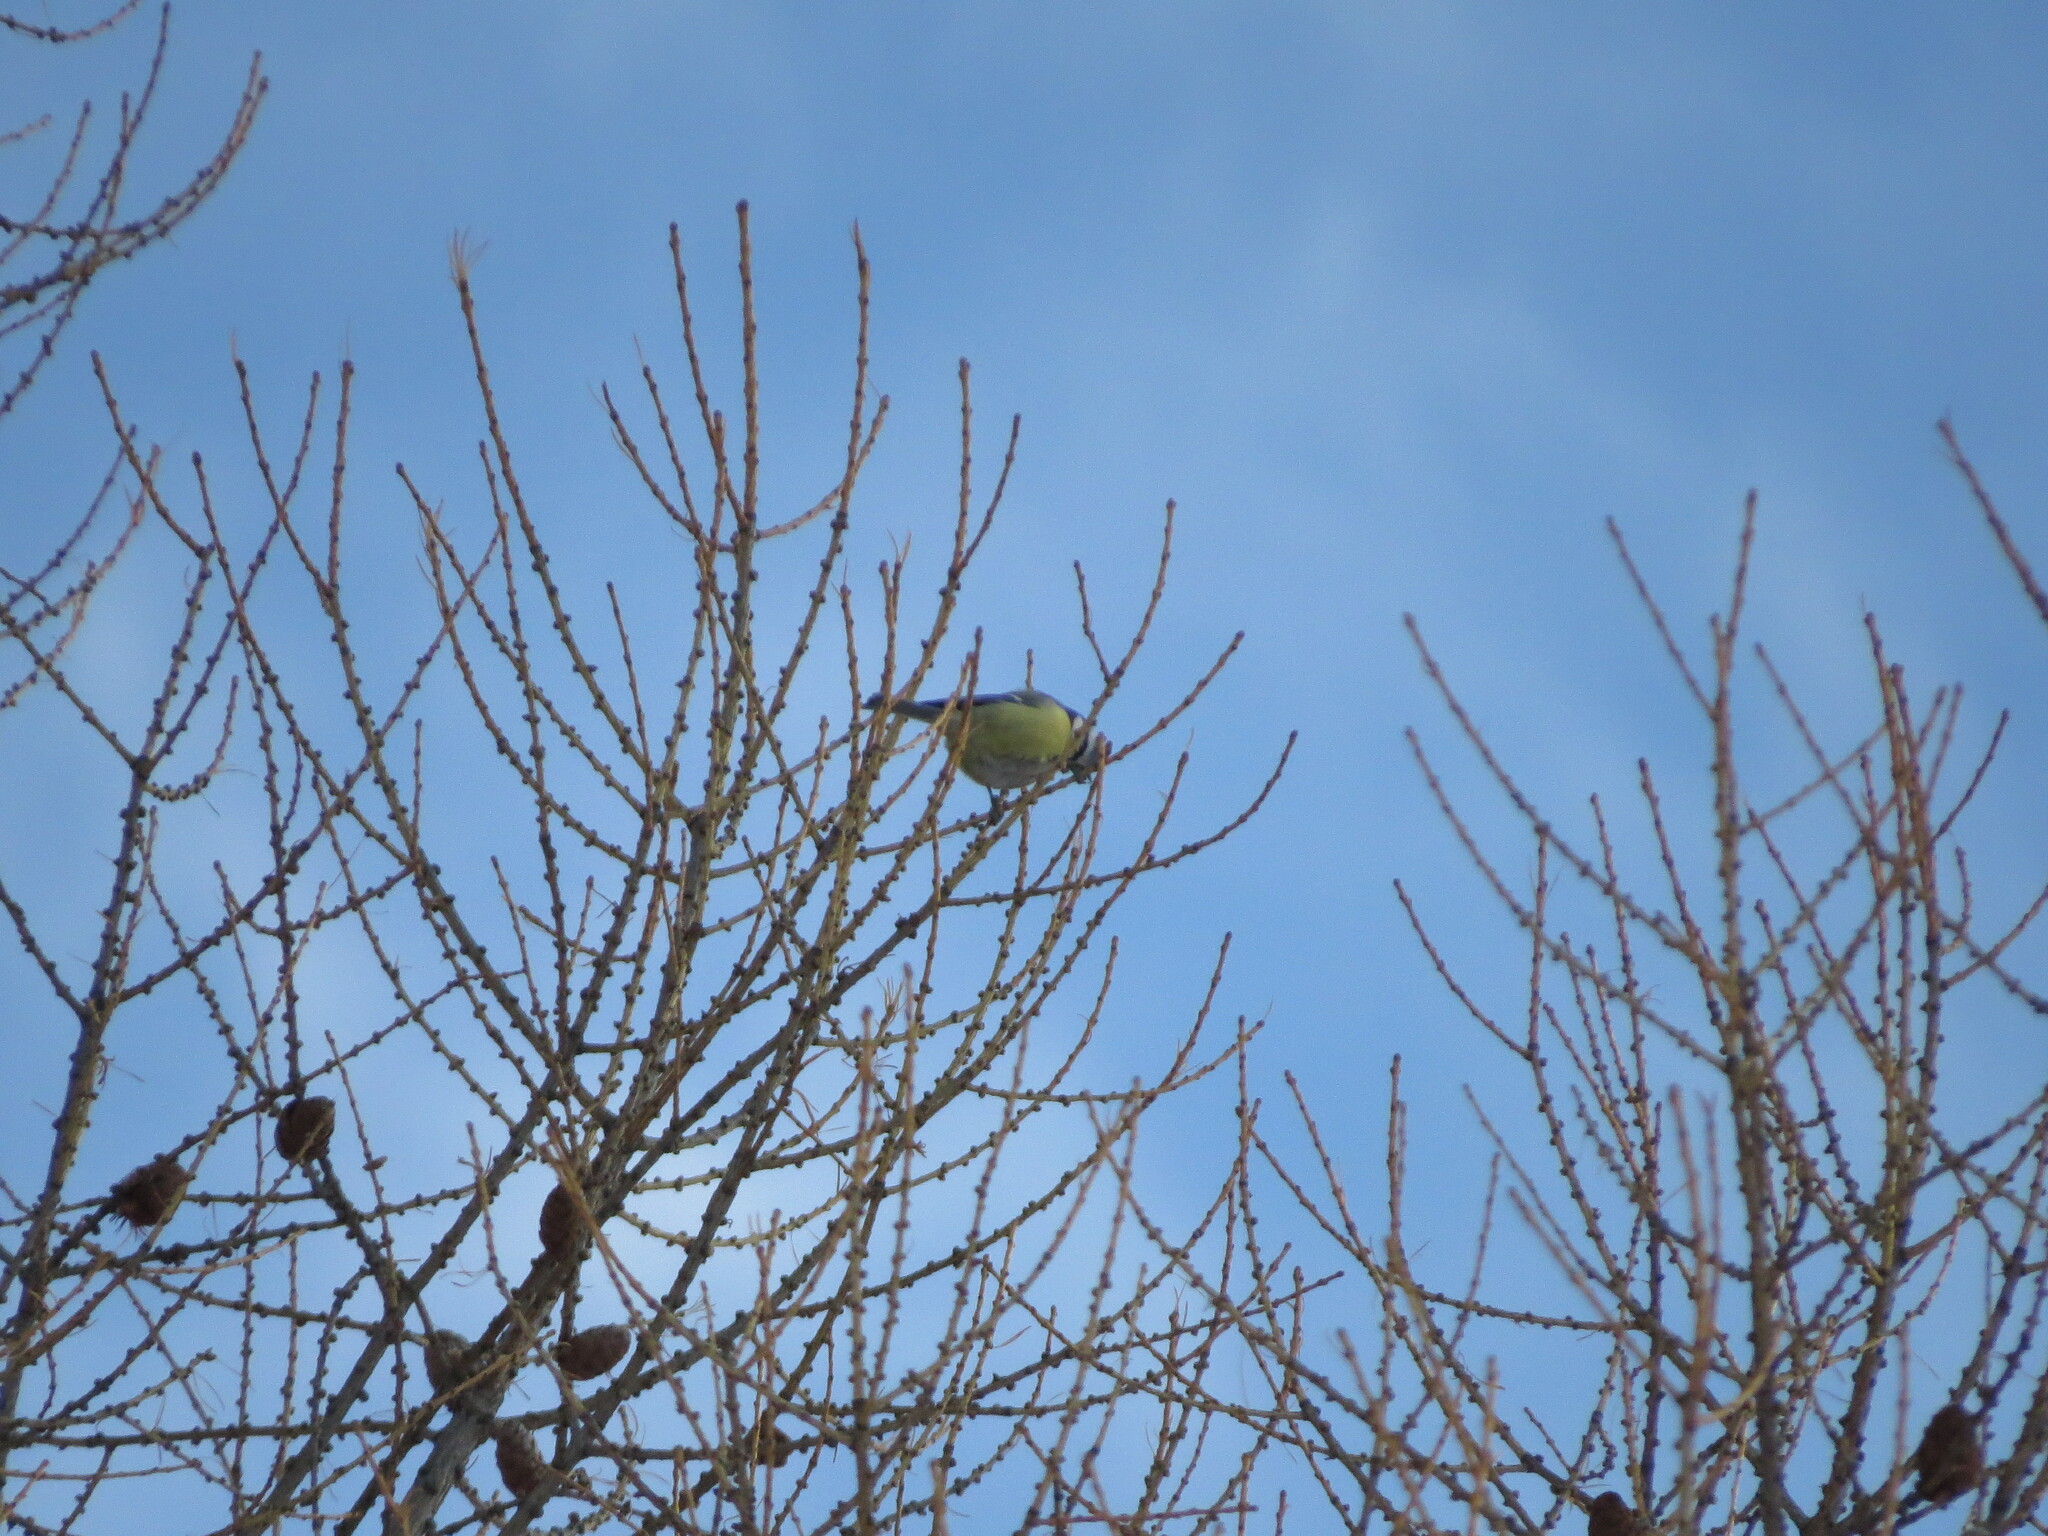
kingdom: Animalia
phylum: Chordata
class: Aves
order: Passeriformes
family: Paridae
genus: Cyanistes
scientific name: Cyanistes caeruleus
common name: Eurasian blue tit
